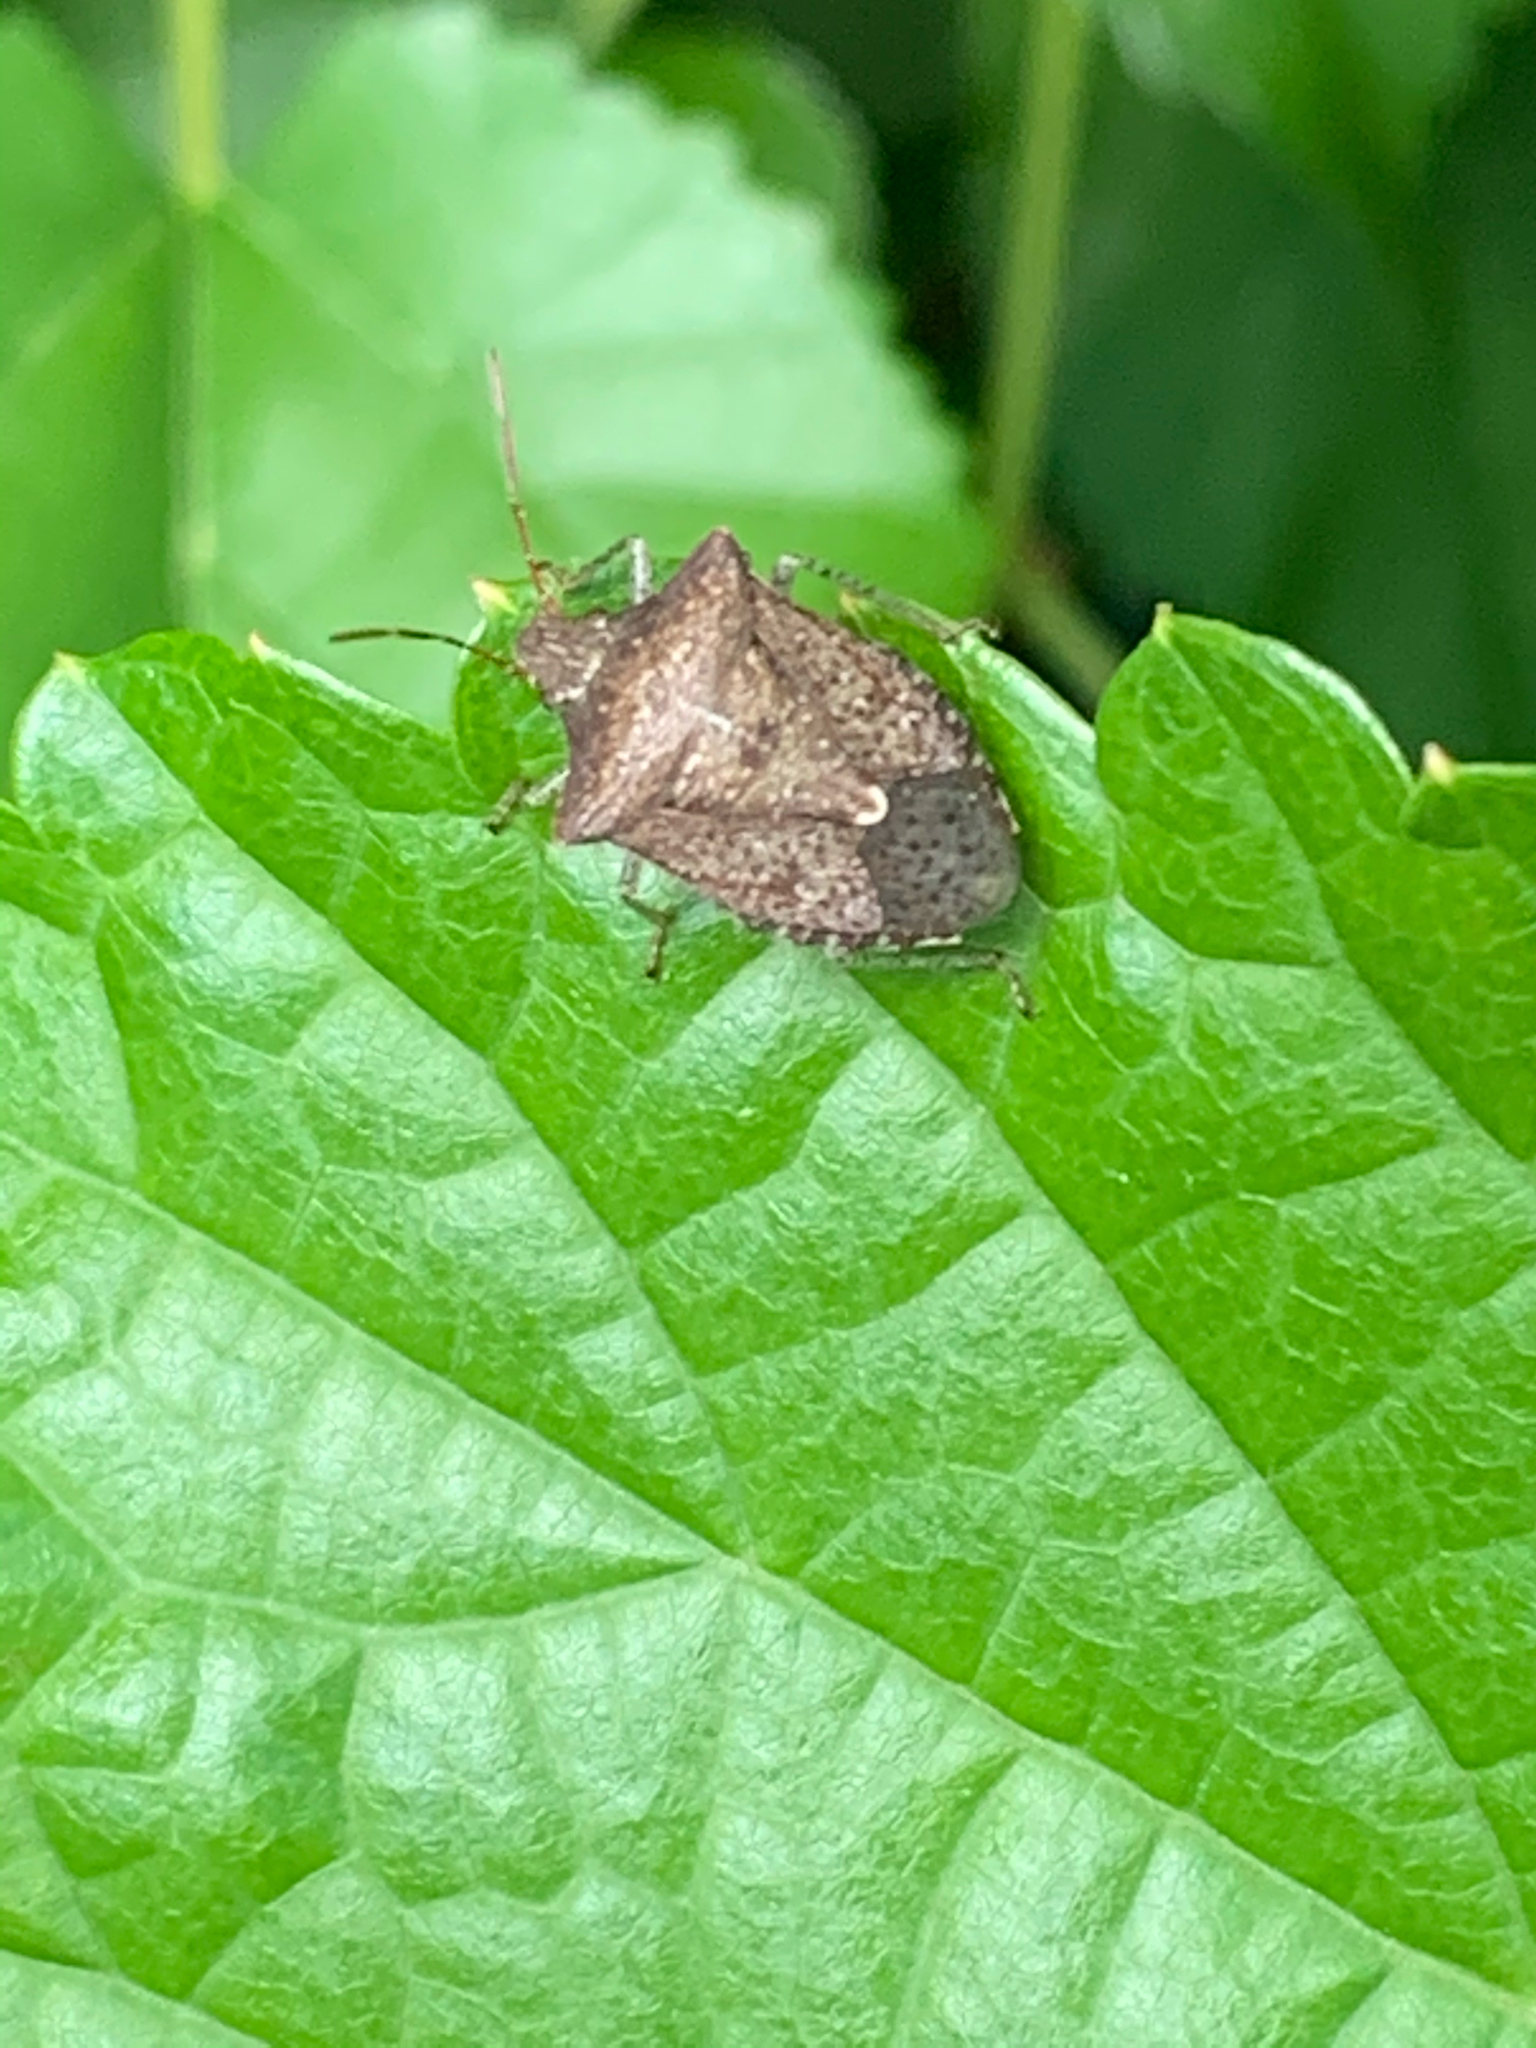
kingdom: Animalia
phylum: Arthropoda
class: Insecta
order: Hemiptera
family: Pentatomidae
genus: Euschistus
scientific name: Euschistus
